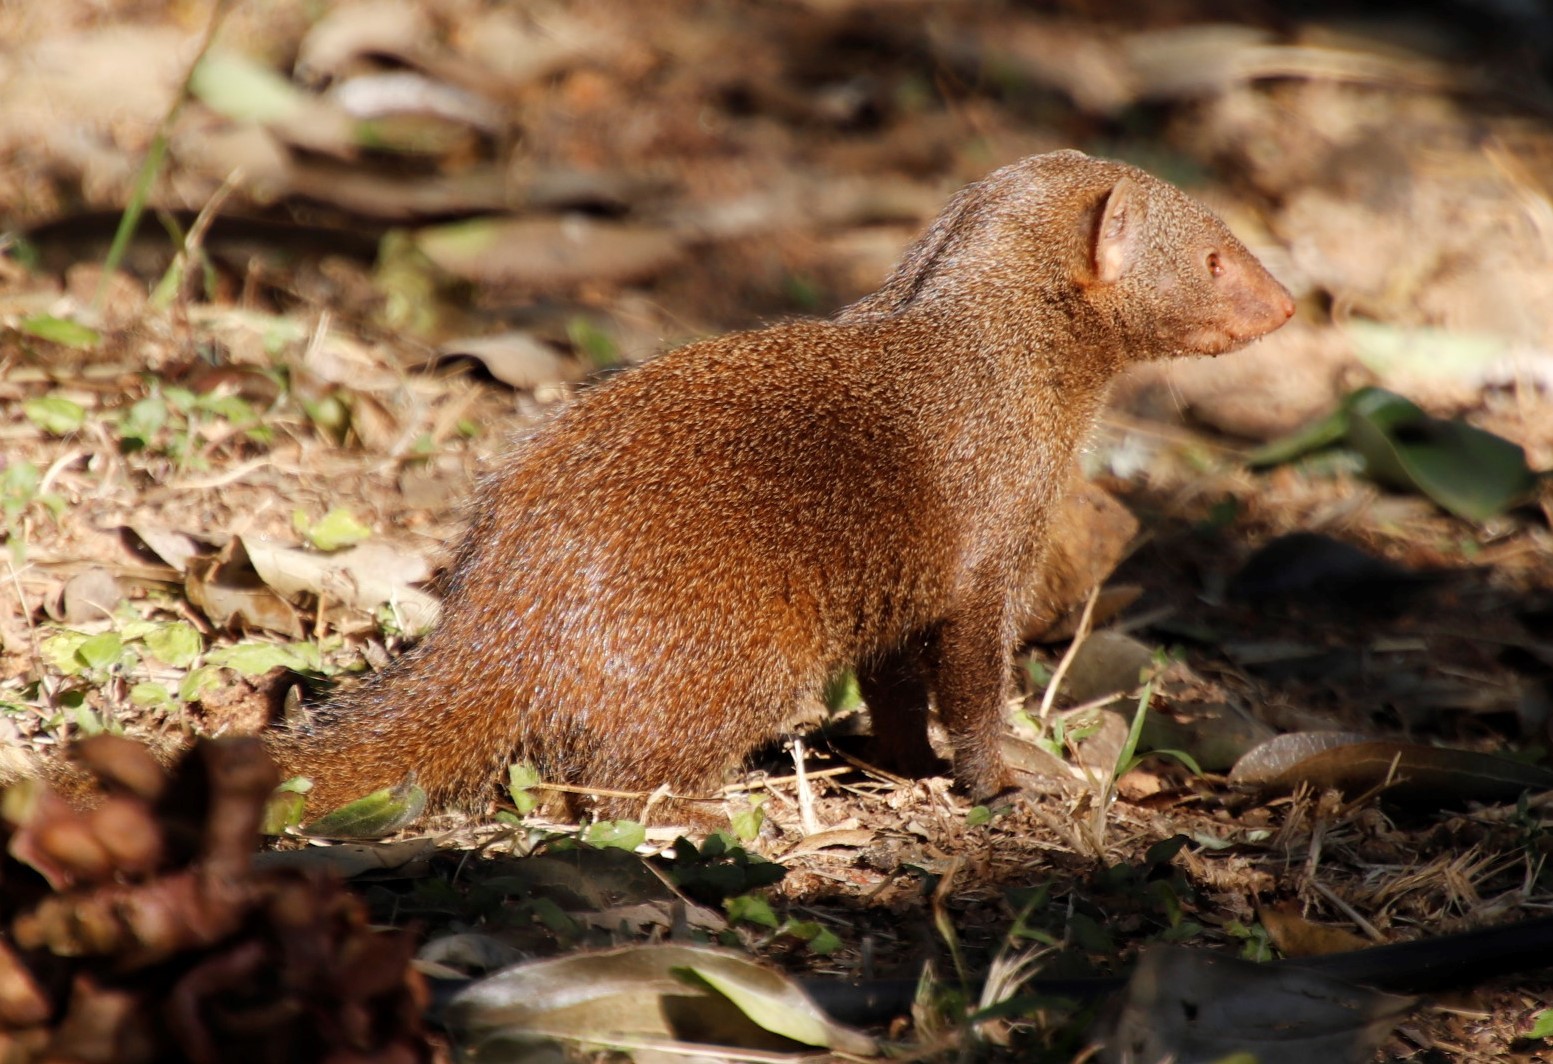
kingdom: Animalia
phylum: Chordata
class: Mammalia
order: Carnivora
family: Herpestidae
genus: Helogale
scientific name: Helogale parvula
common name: Common dwarf mongoose
